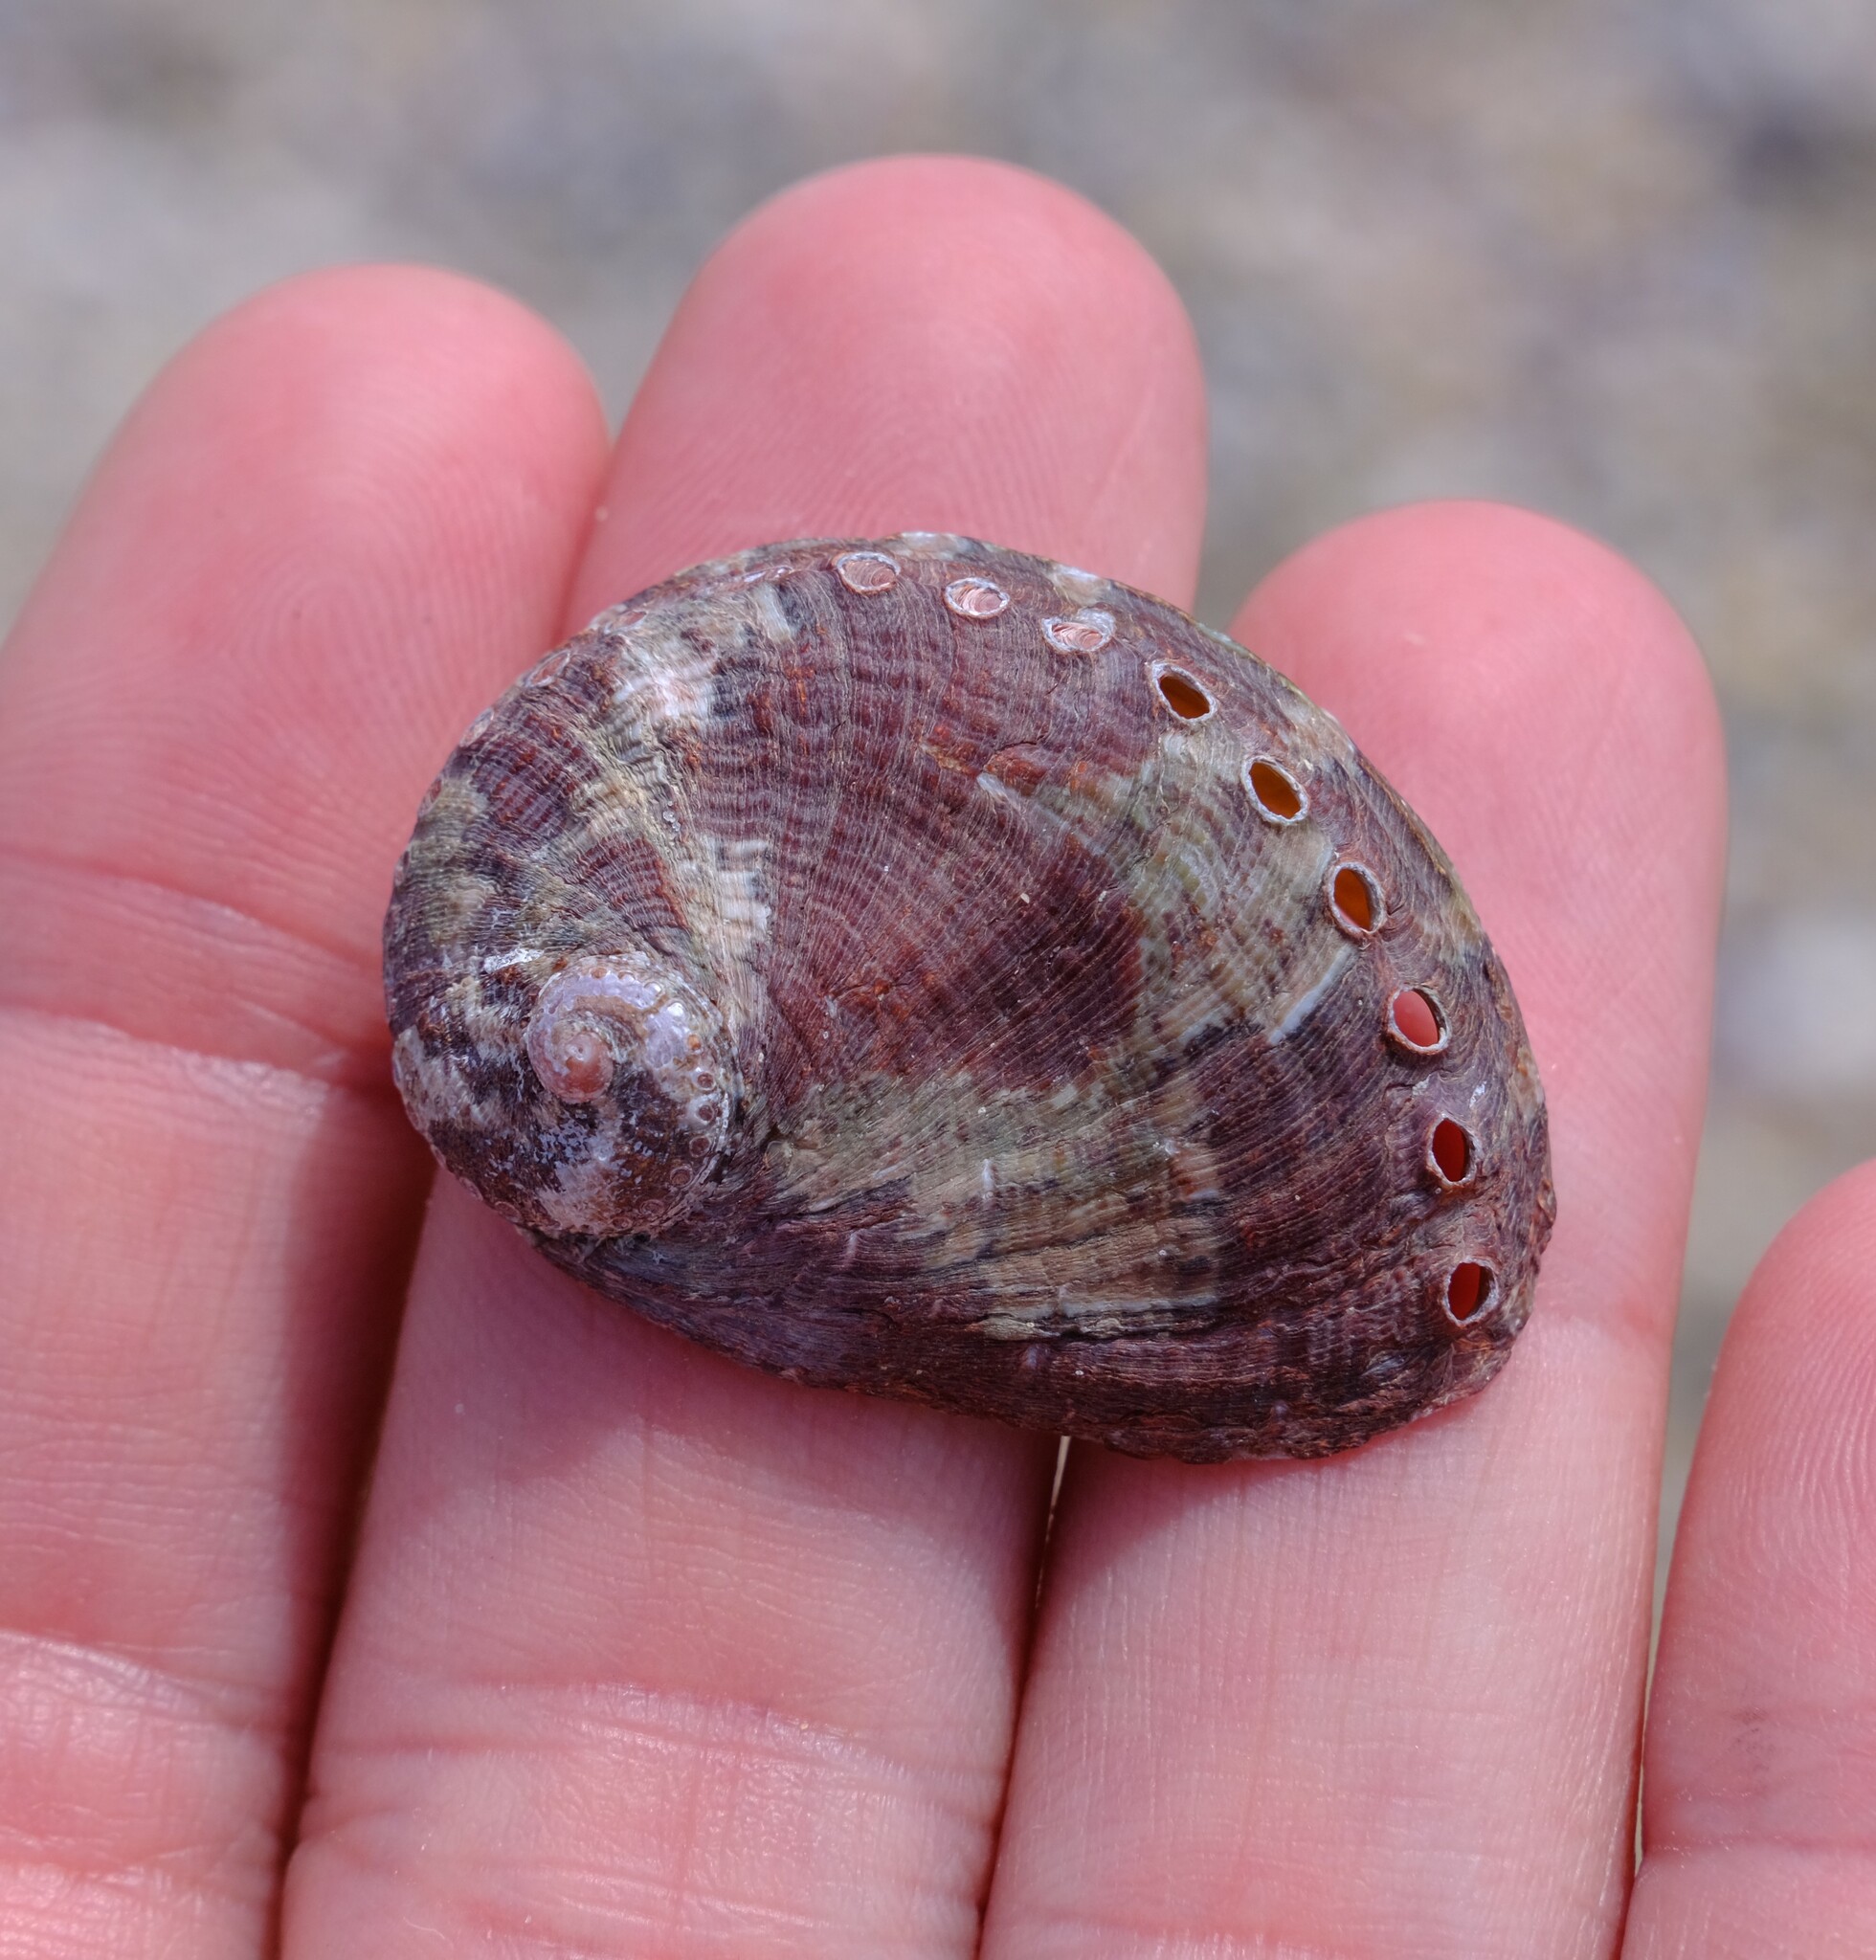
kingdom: Animalia
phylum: Mollusca
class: Gastropoda
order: Lepetellida
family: Haliotidae
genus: Haliotis
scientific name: Haliotis coccoradiata
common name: Reddish-rayed abalone
